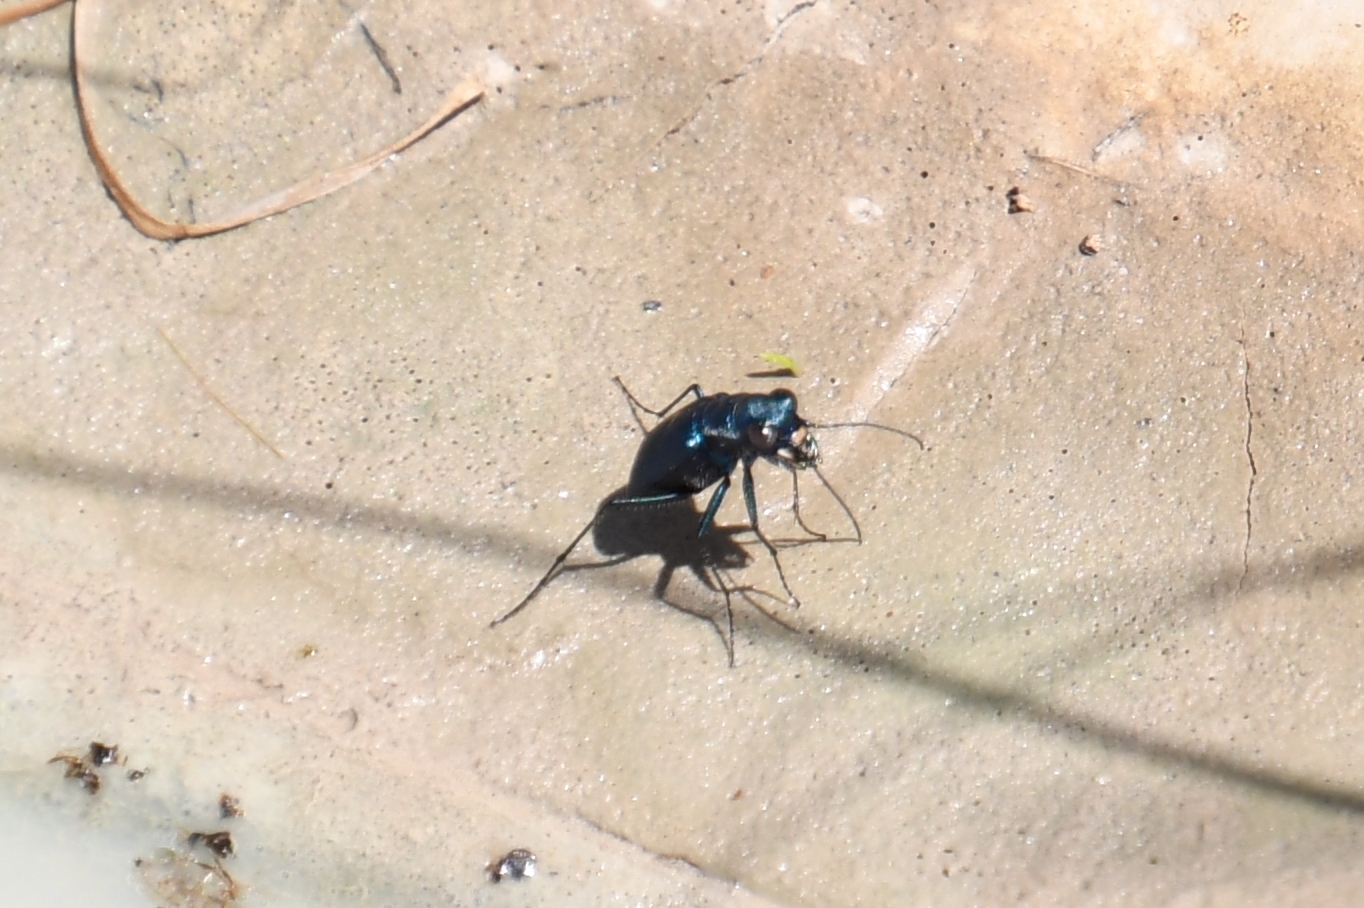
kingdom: Animalia
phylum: Arthropoda
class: Insecta
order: Coleoptera
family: Carabidae
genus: Cicindela
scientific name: Cicindela nigrocoerulea
